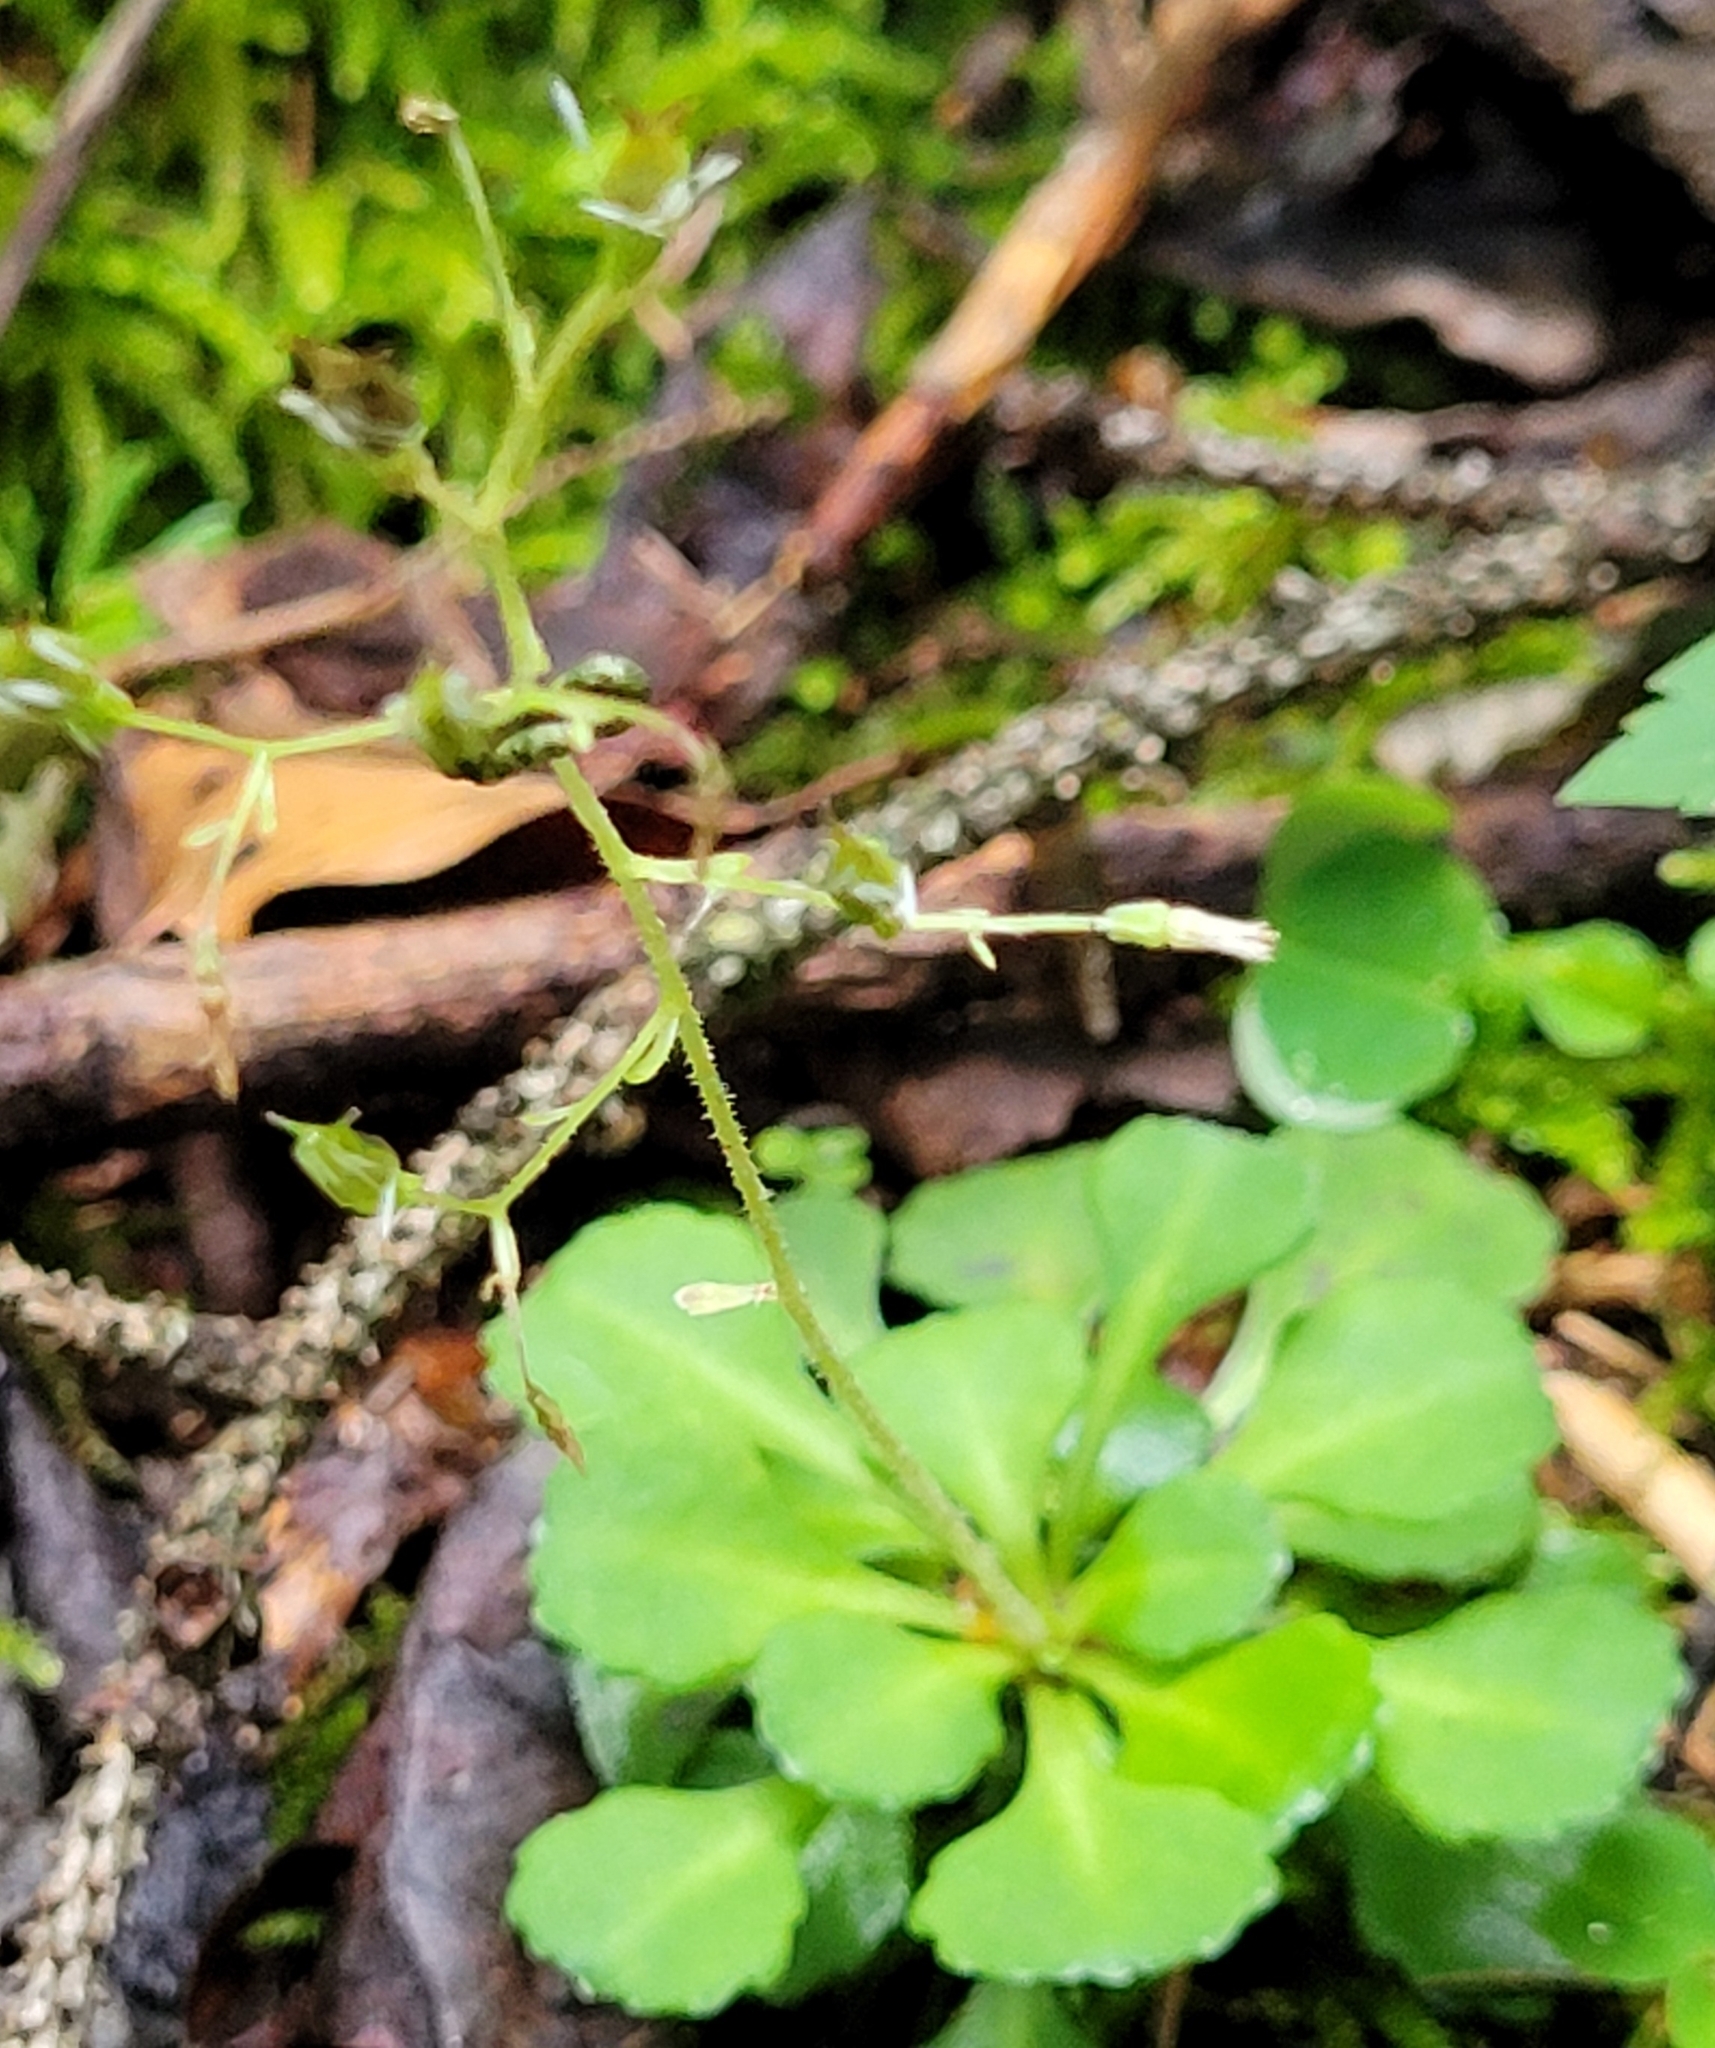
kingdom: Plantae
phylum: Tracheophyta
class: Magnoliopsida
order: Saxifragales
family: Saxifragaceae
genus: Saxifraga
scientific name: Saxifraga cuneifolia
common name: Lesser londonpride
